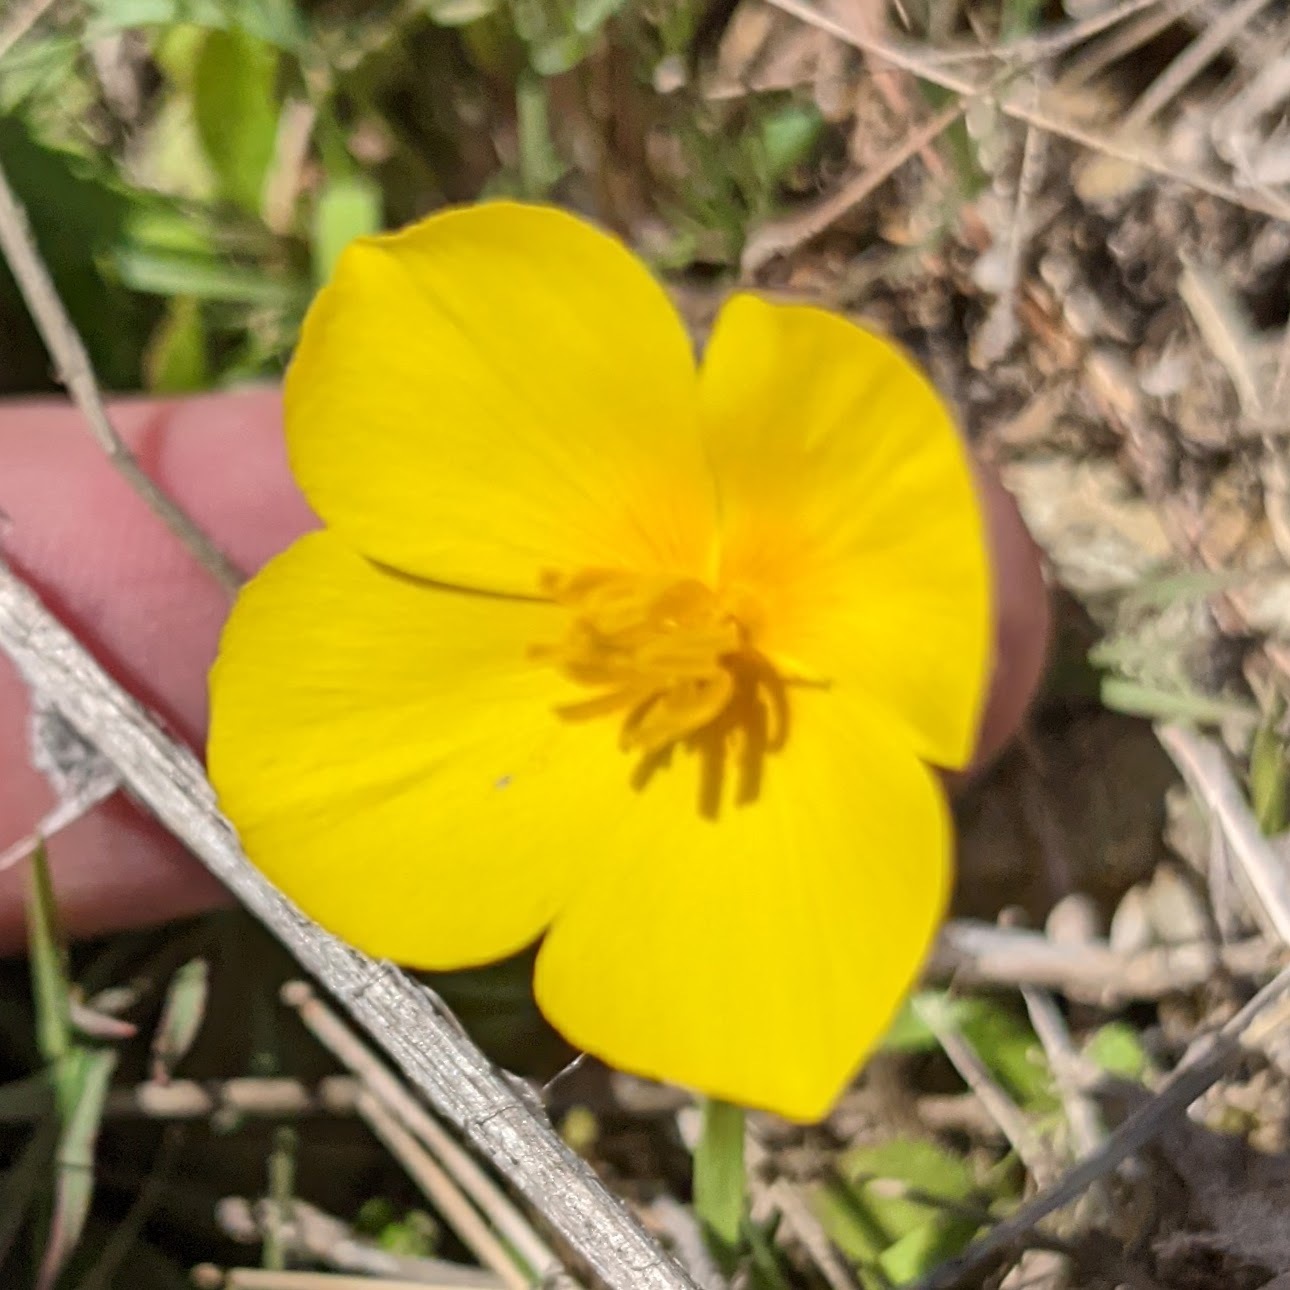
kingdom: Plantae
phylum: Tracheophyta
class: Magnoliopsida
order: Ranunculales
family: Papaveraceae
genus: Eschscholzia
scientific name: Eschscholzia lobbii
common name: Frying-pans
